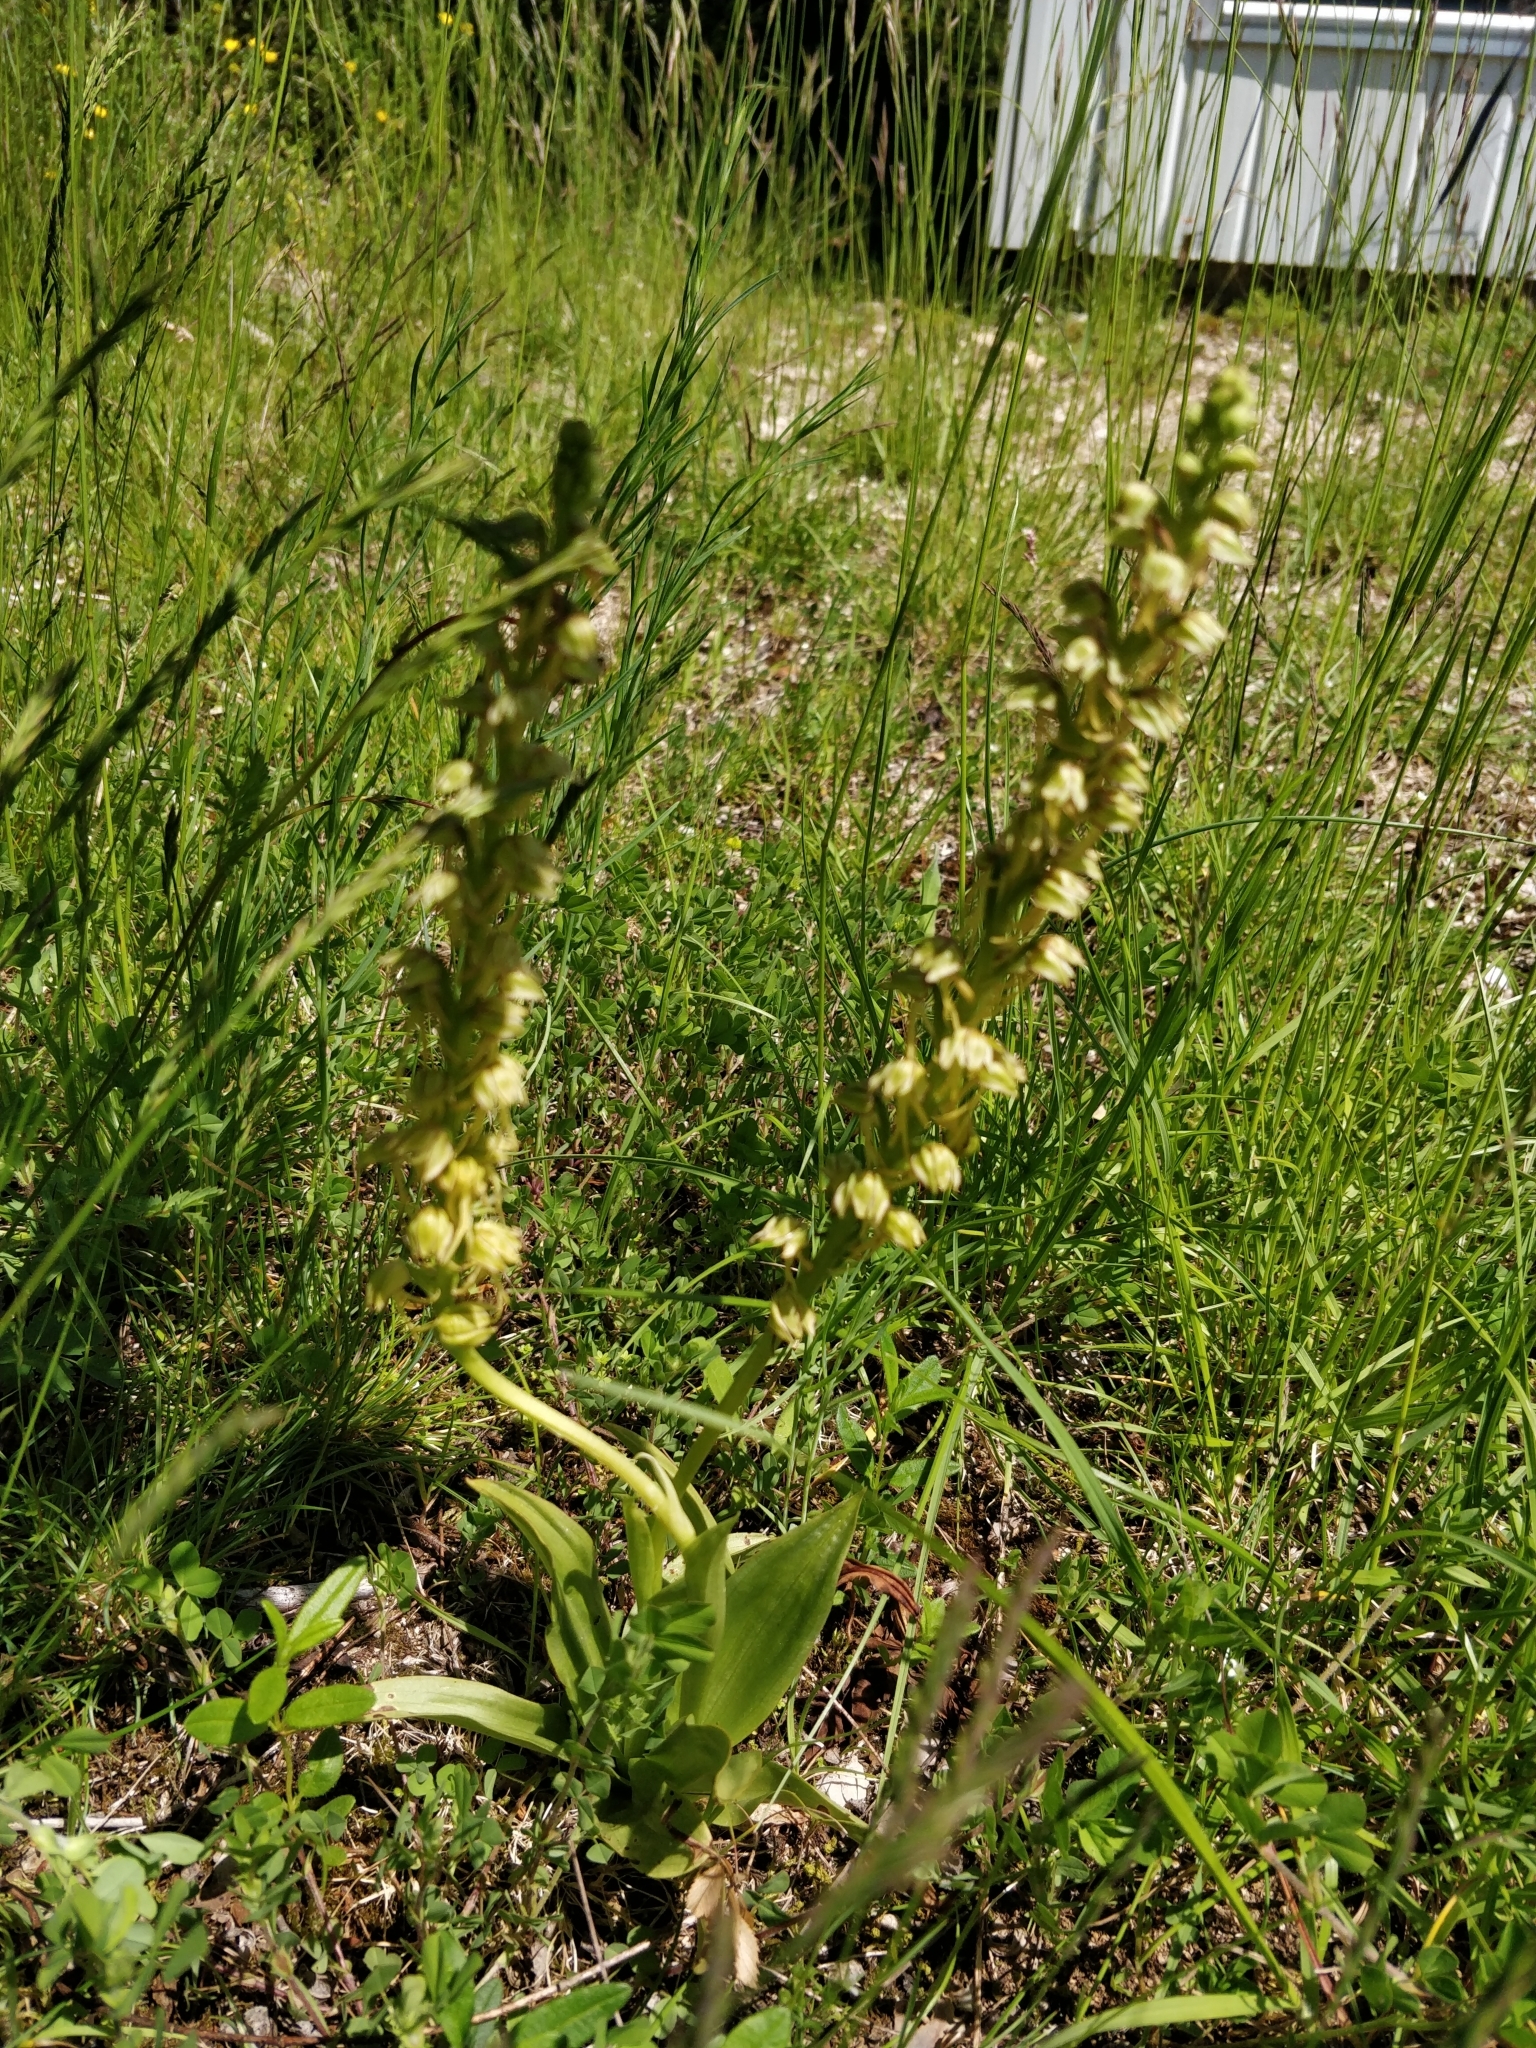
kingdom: Plantae
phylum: Tracheophyta
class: Liliopsida
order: Asparagales
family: Orchidaceae
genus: Orchis
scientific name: Orchis anthropophora
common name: Man orchid
